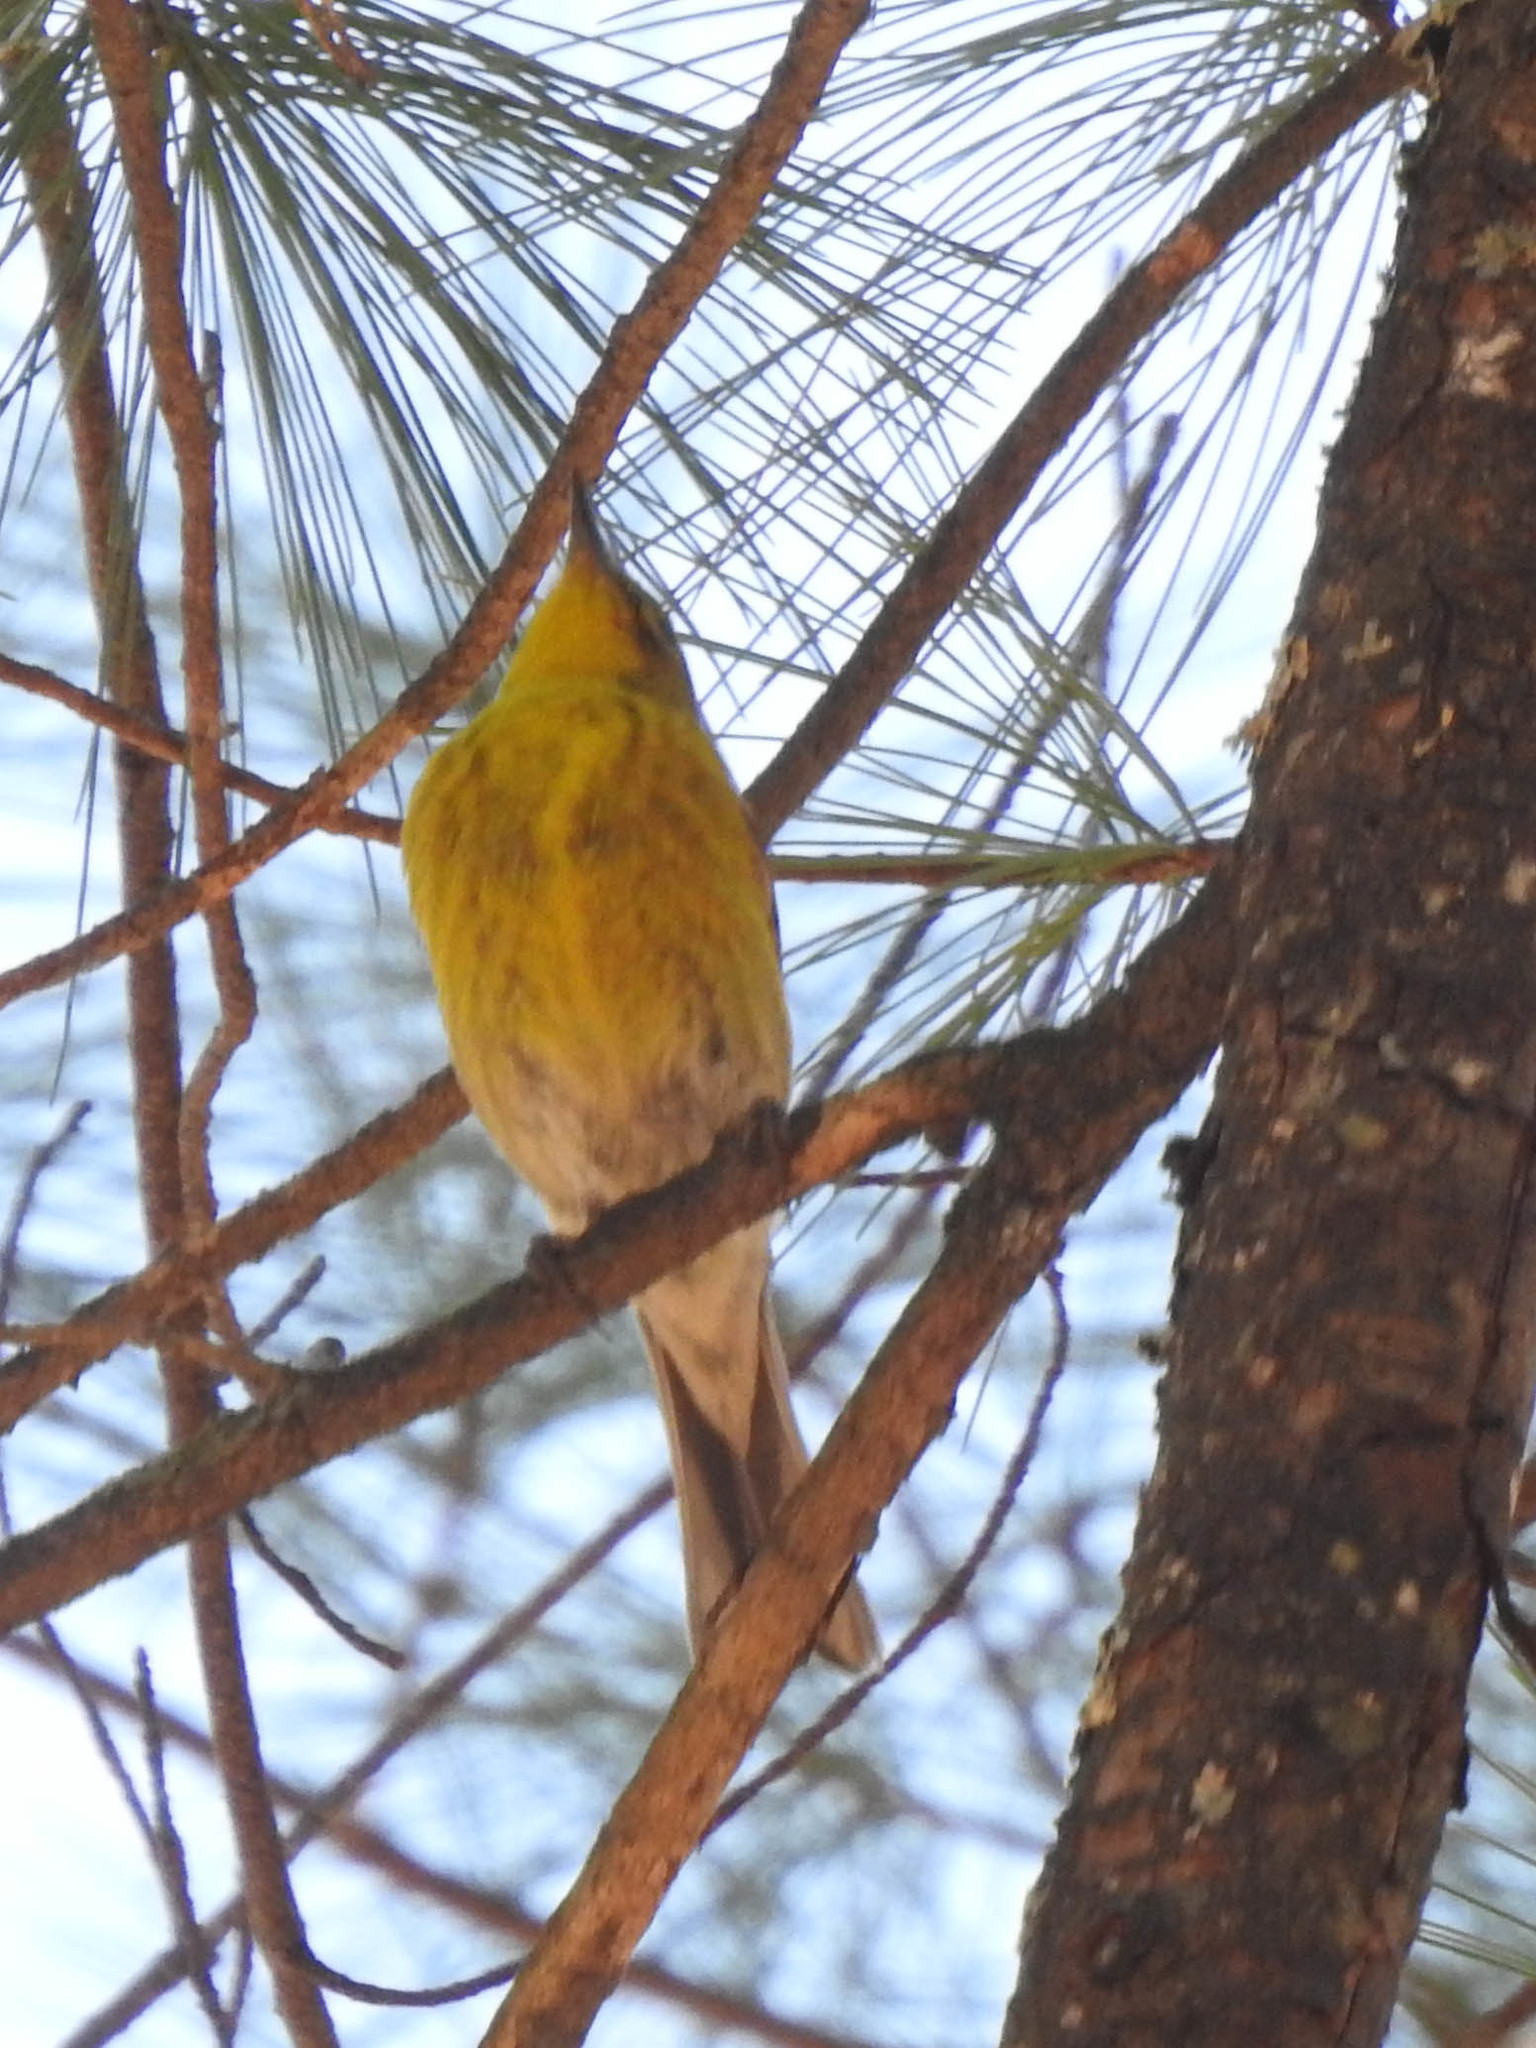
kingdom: Animalia
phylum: Chordata
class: Aves
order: Passeriformes
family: Parulidae
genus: Setophaga
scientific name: Setophaga pinus
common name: Pine warbler
